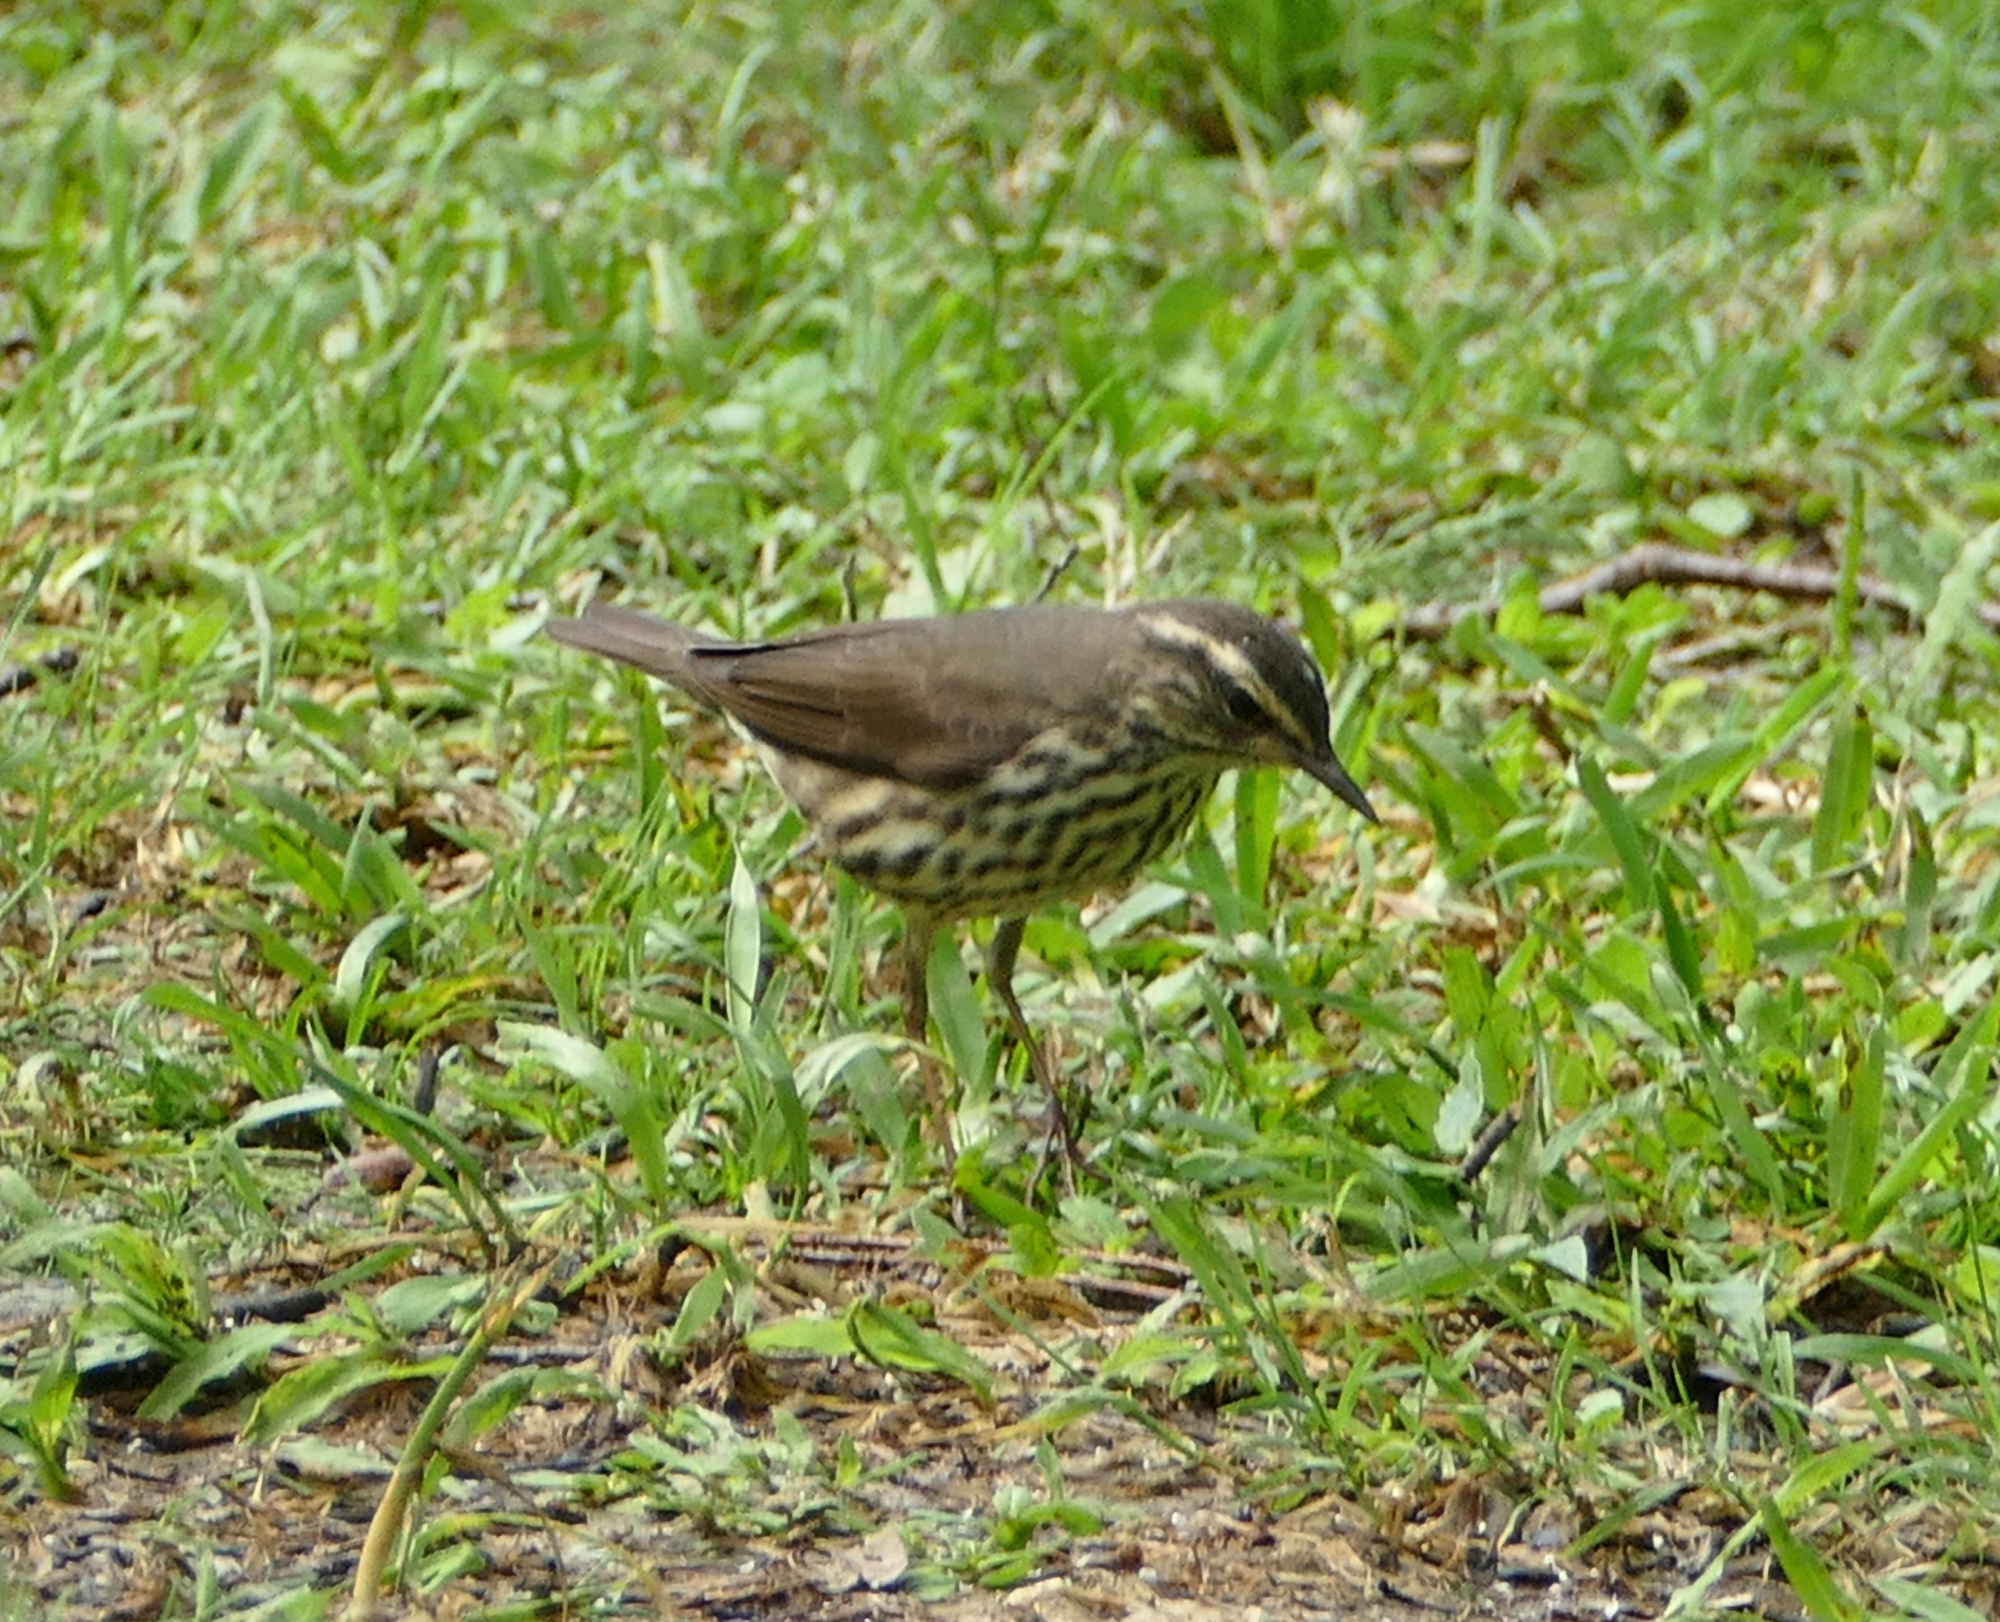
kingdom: Animalia
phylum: Chordata
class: Aves
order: Passeriformes
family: Parulidae
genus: Parkesia
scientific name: Parkesia noveboracensis
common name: Northern waterthrush
